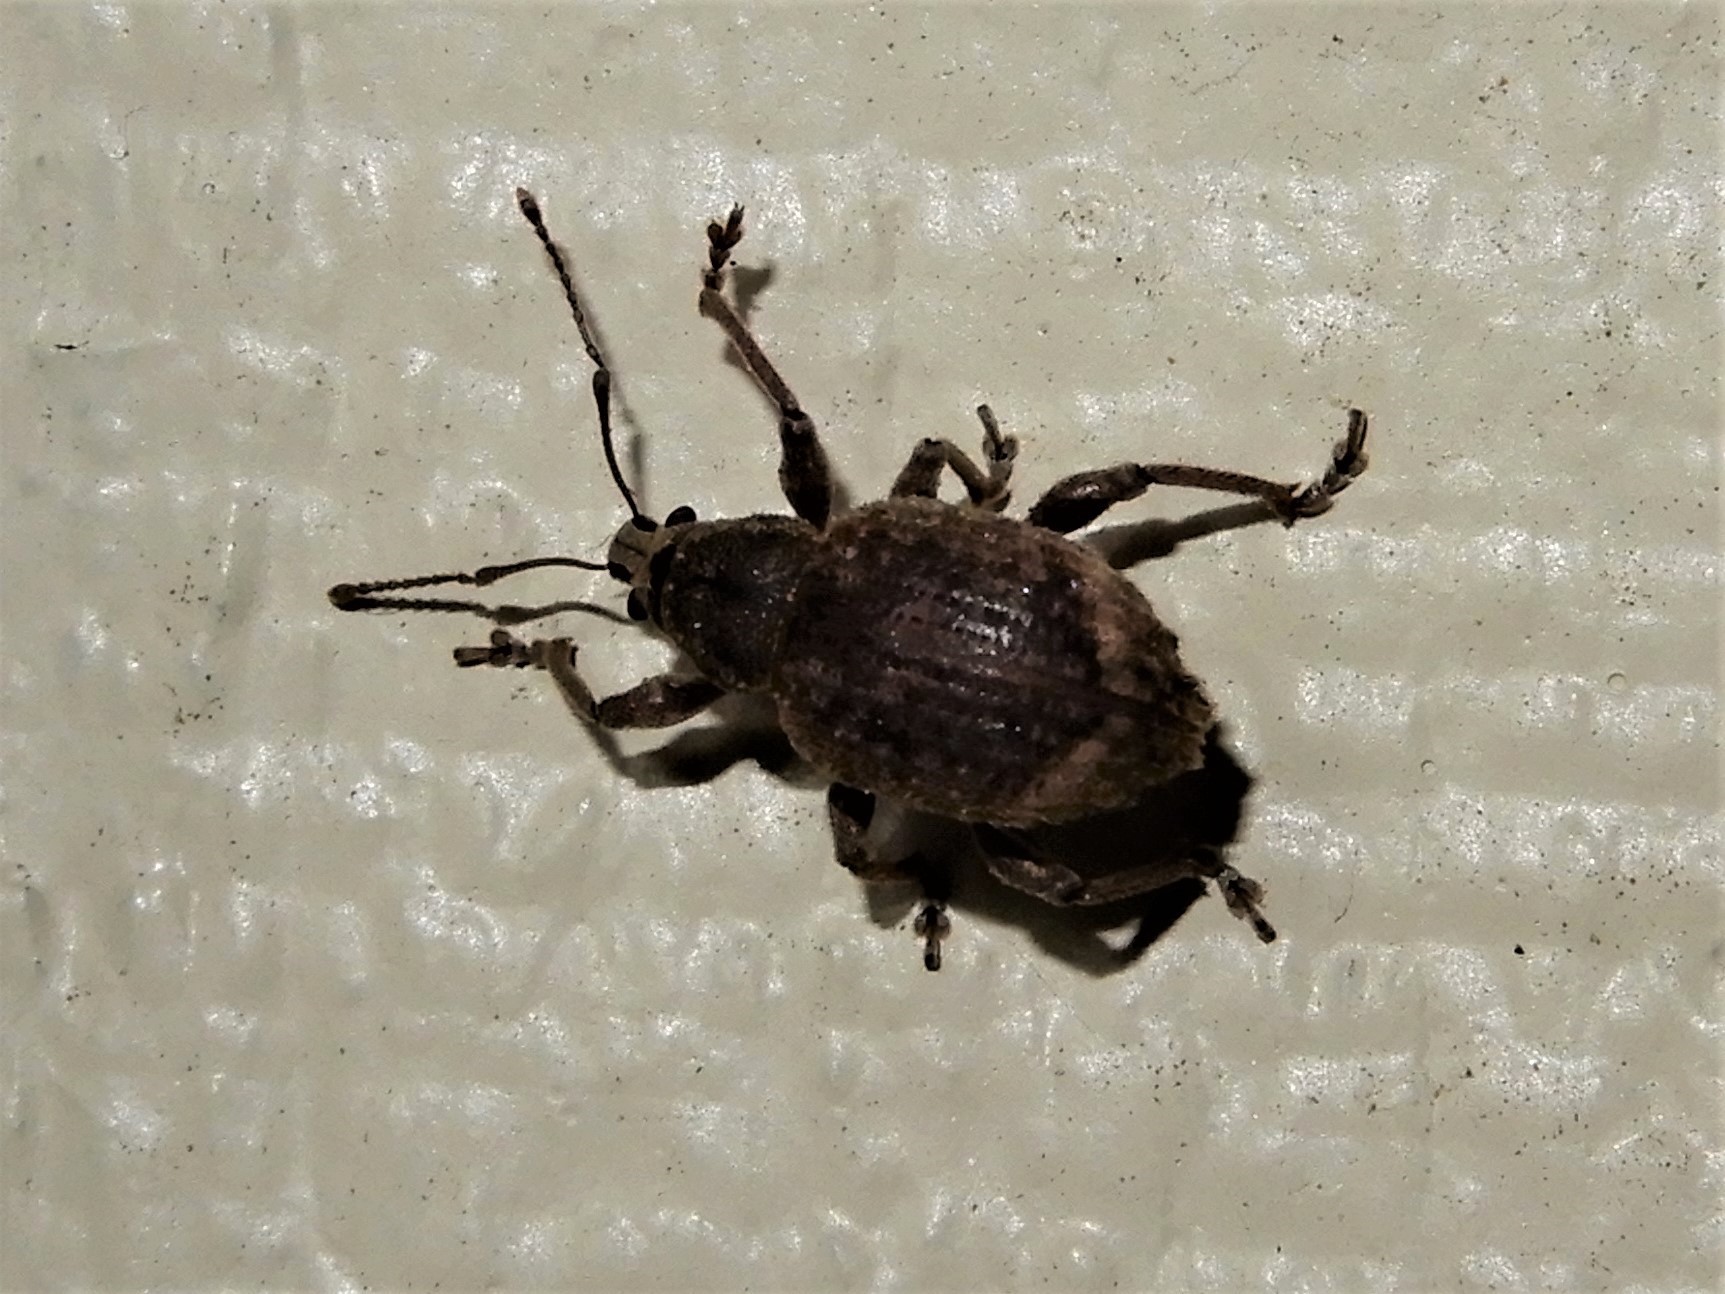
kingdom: Animalia
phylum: Arthropoda
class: Insecta
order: Coleoptera
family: Curculionidae
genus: Phlyctinus
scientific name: Phlyctinus callosus
